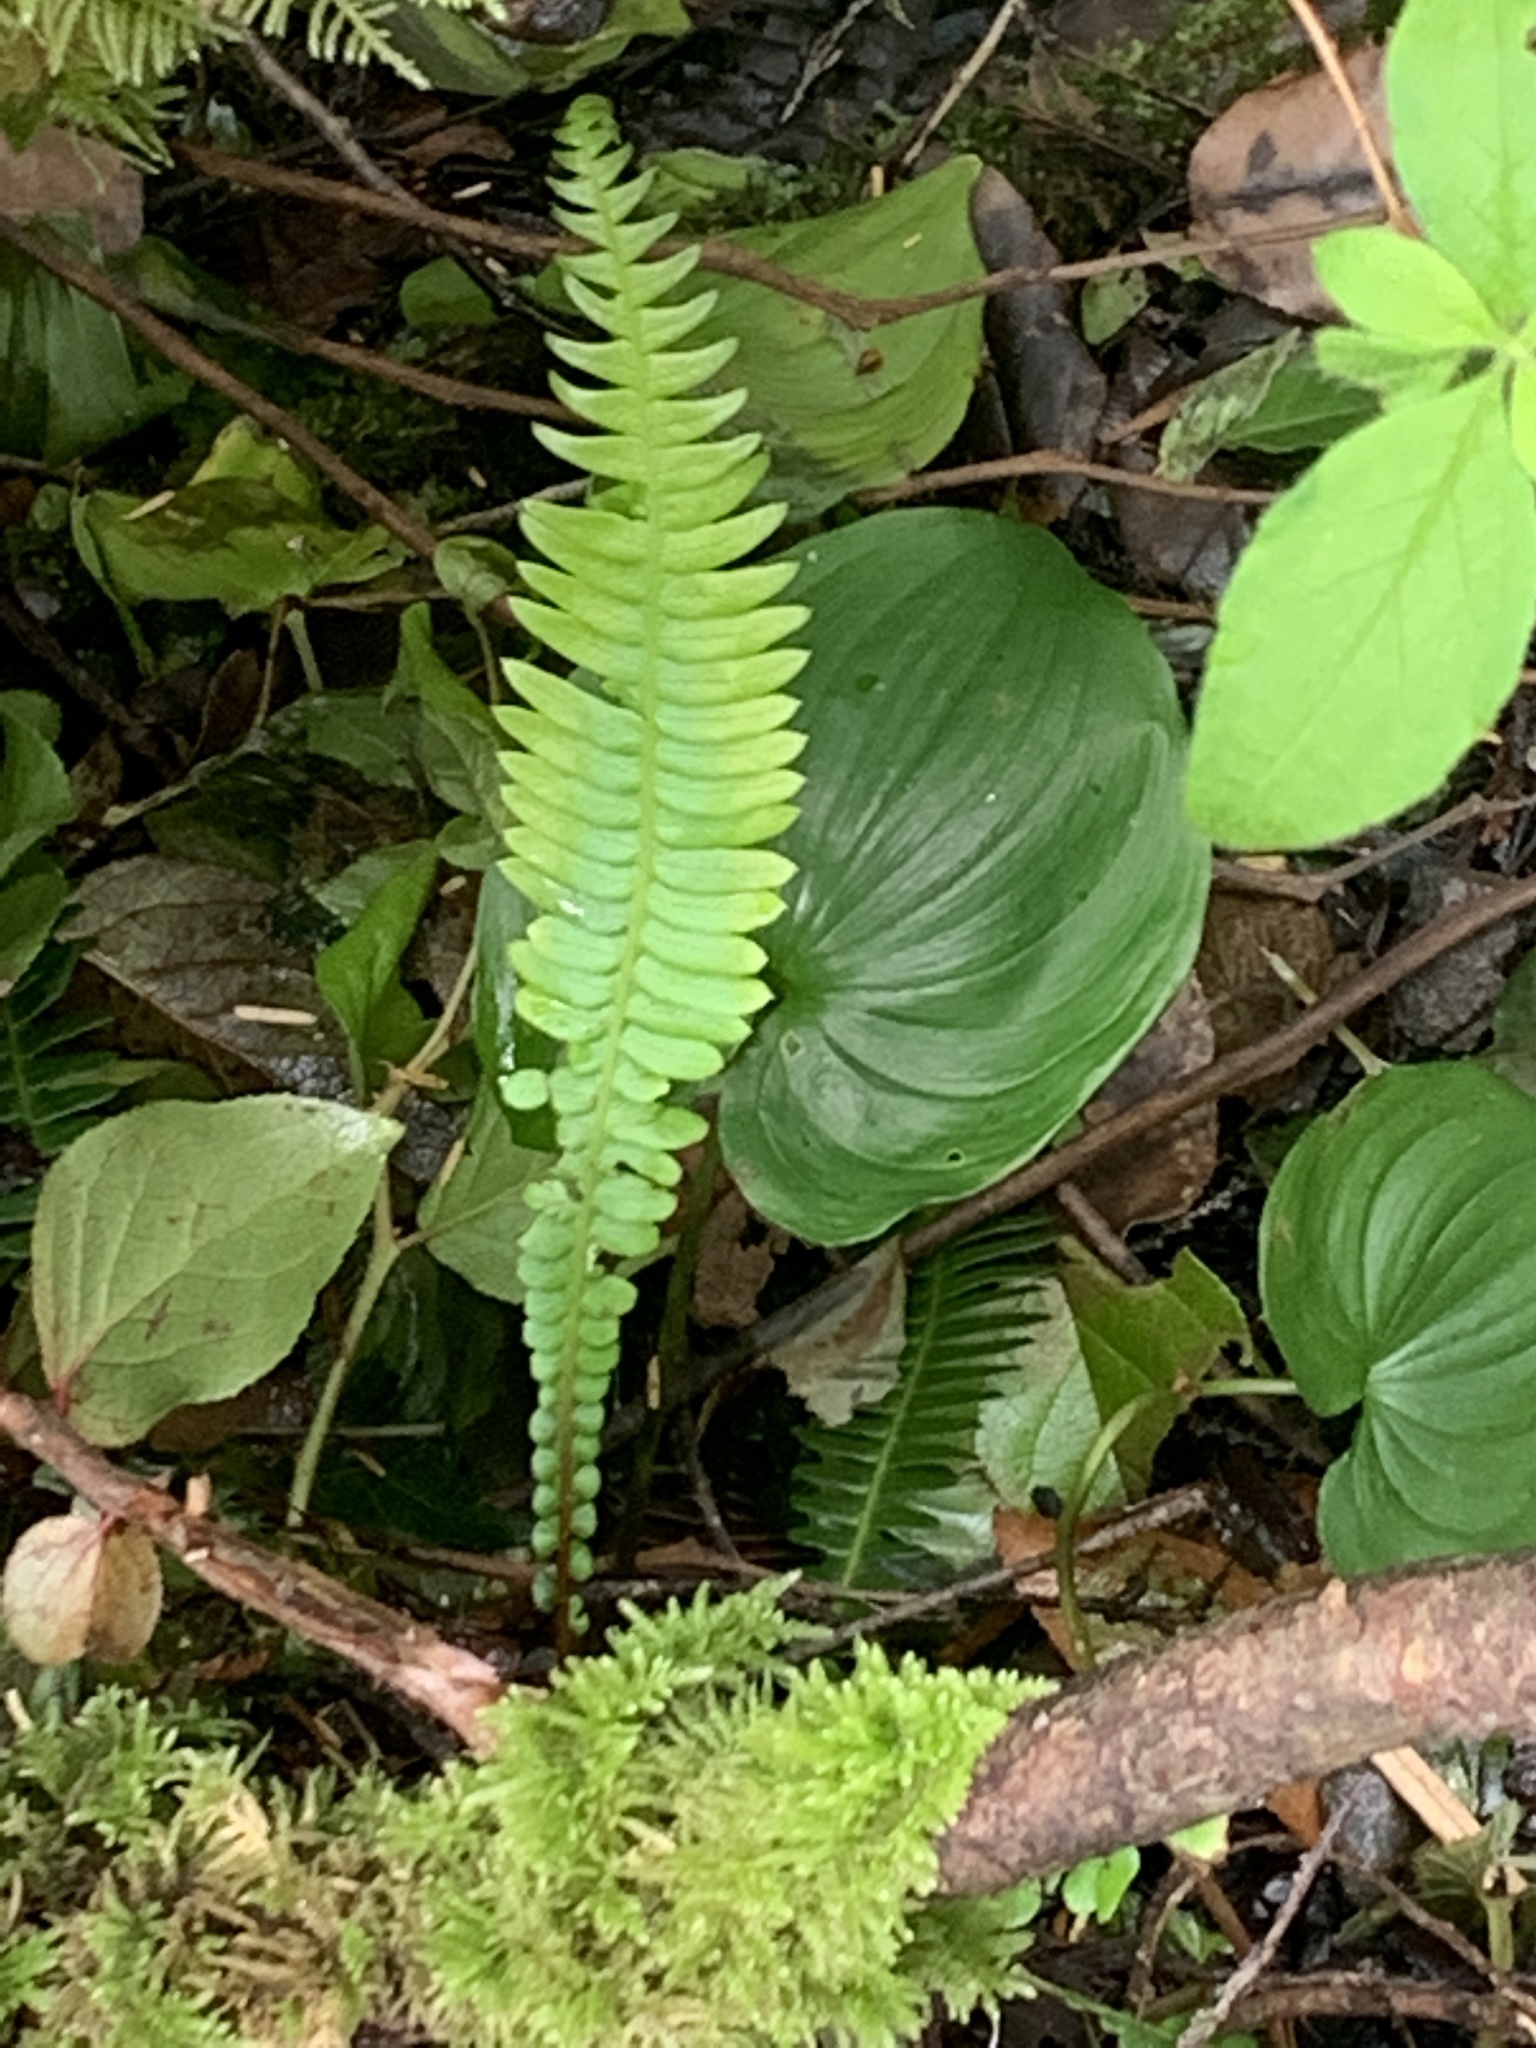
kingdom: Plantae
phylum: Tracheophyta
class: Polypodiopsida
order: Polypodiales
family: Blechnaceae
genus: Struthiopteris
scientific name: Struthiopteris spicant
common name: Deer fern
